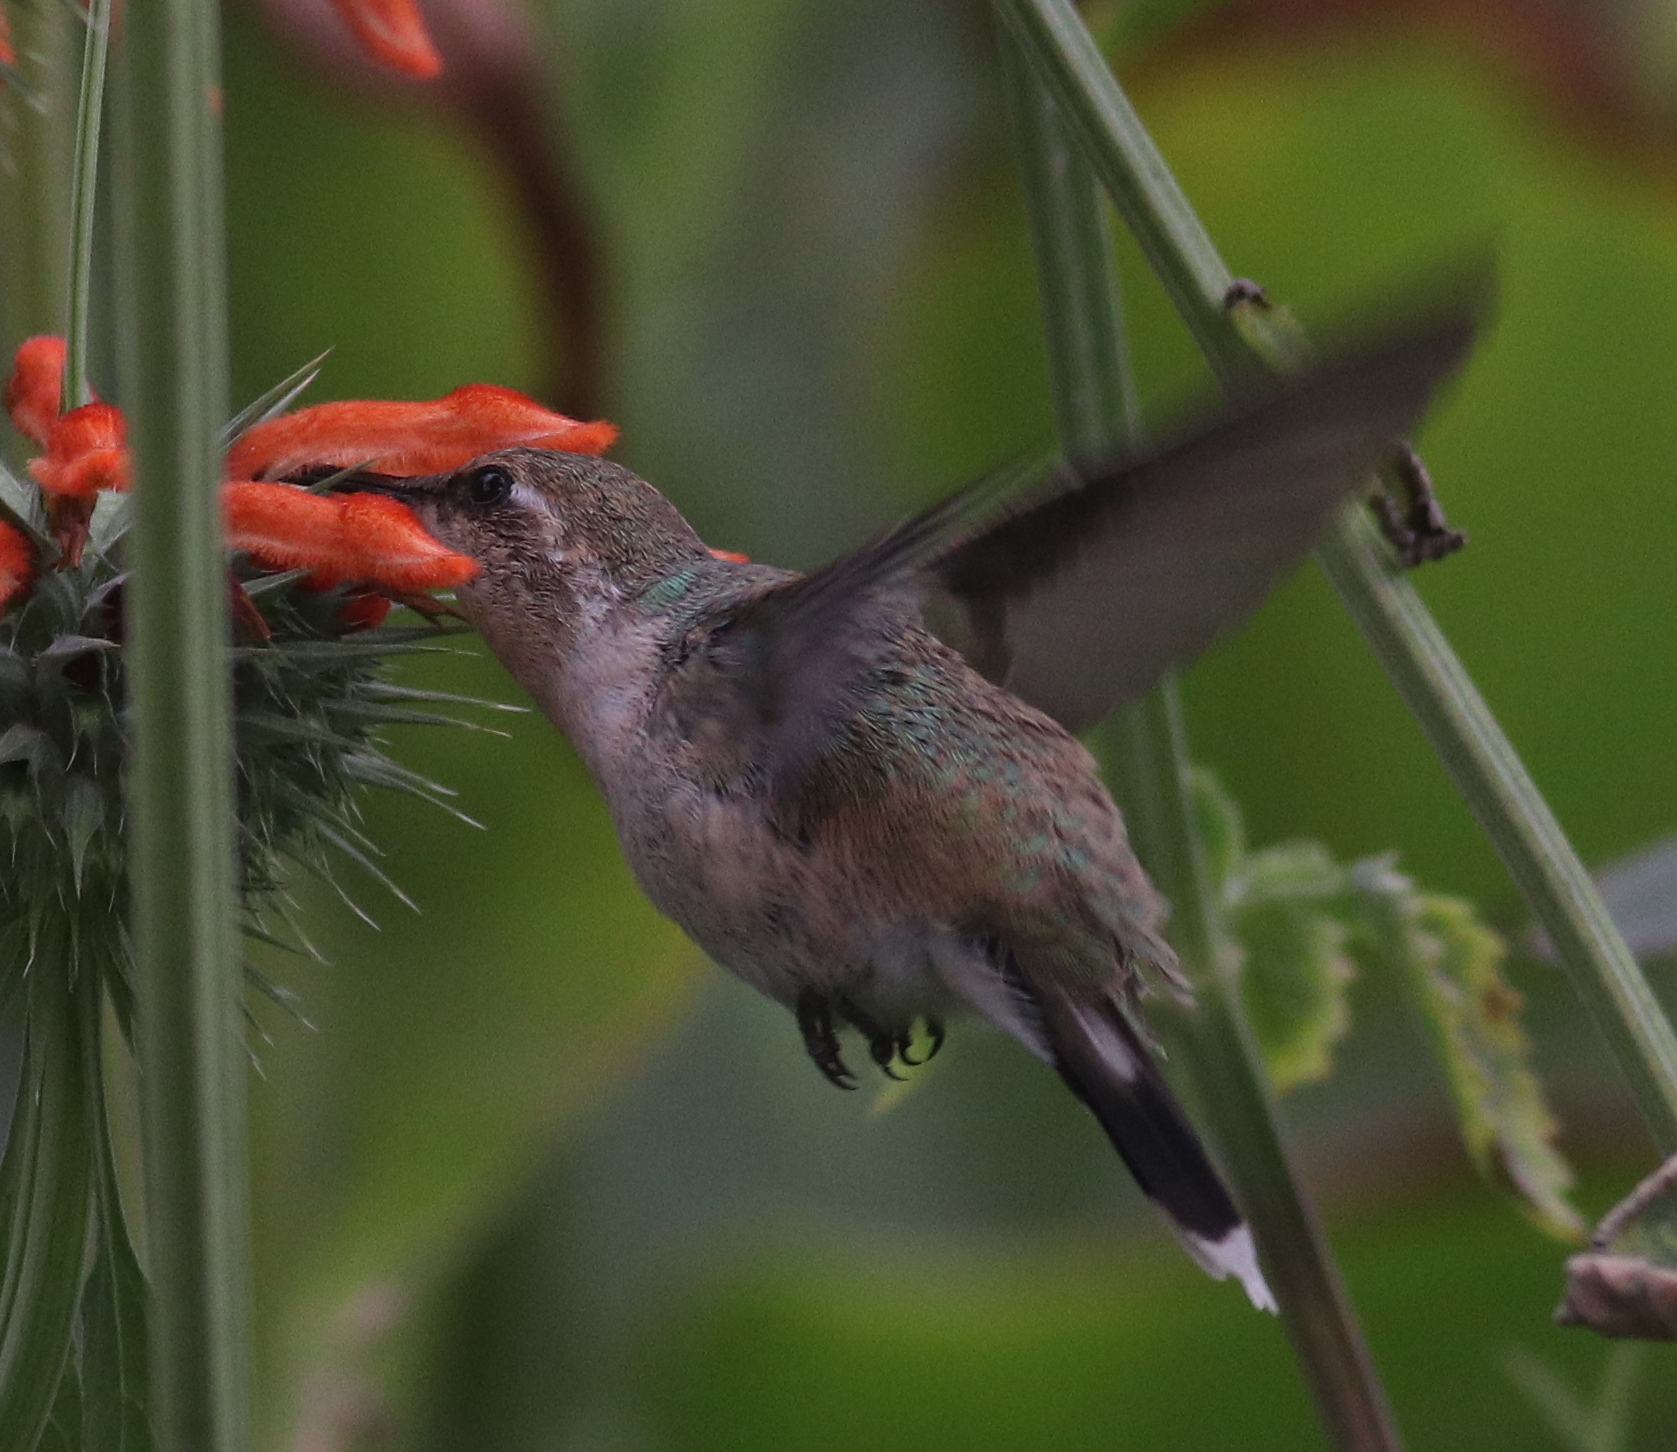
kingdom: Animalia
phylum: Chordata
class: Aves
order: Apodiformes
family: Trochilidae
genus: Rhodopis
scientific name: Rhodopis vesper
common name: Oasis hummingbird
